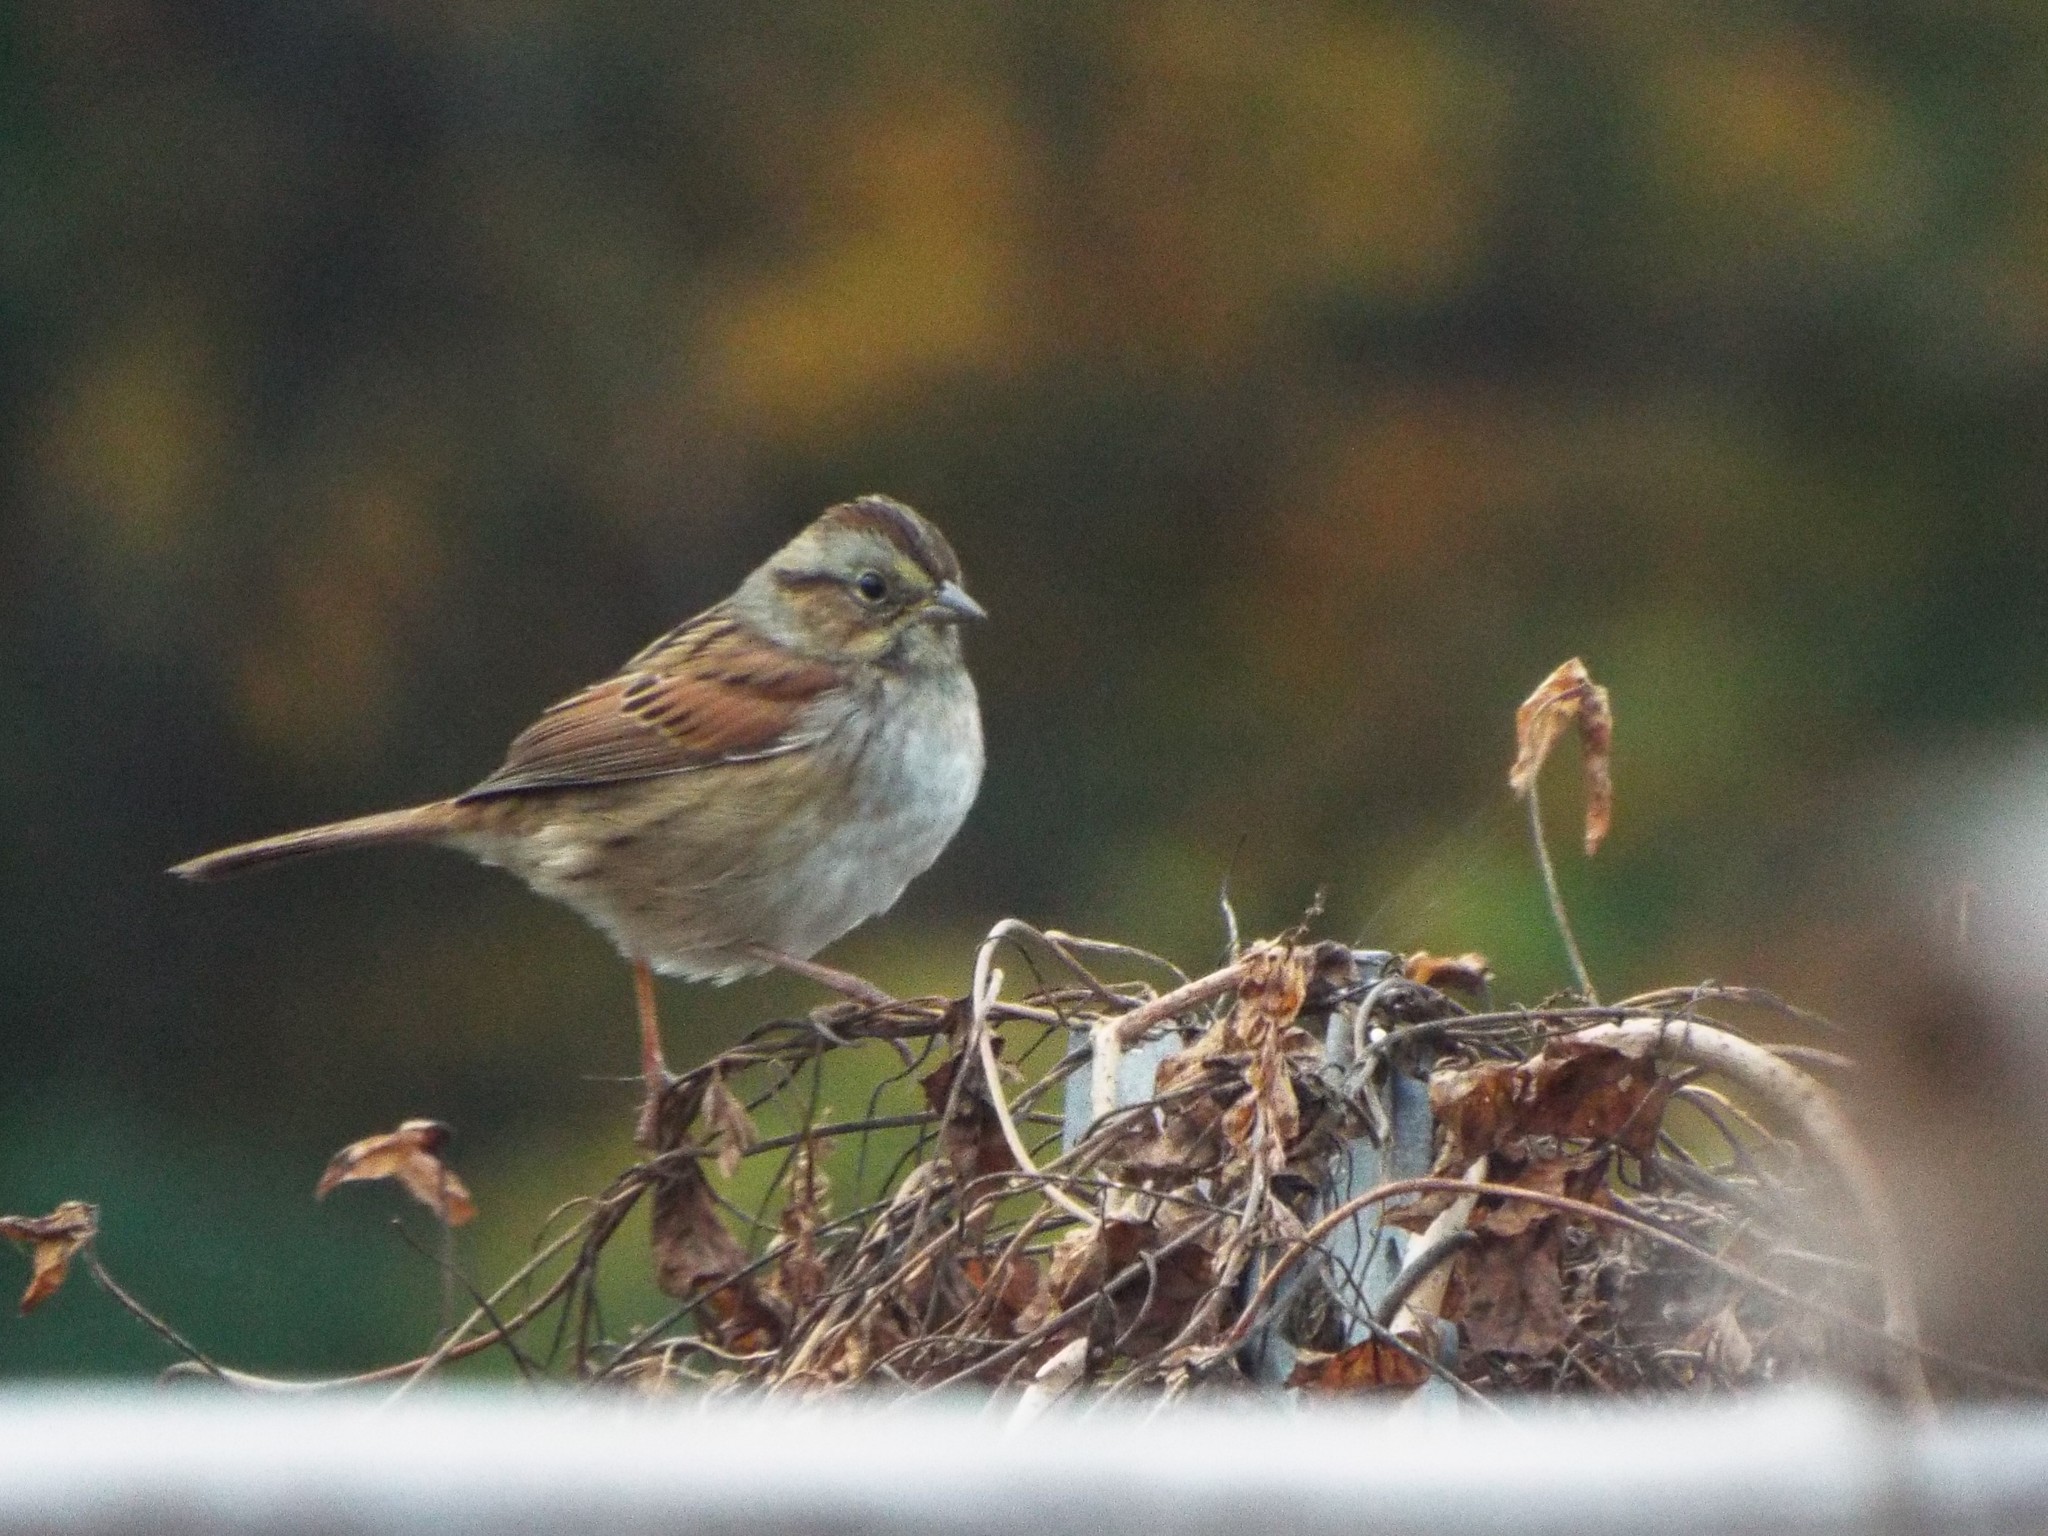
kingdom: Animalia
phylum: Chordata
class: Aves
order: Passeriformes
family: Passerellidae
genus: Melospiza
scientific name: Melospiza georgiana
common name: Swamp sparrow
